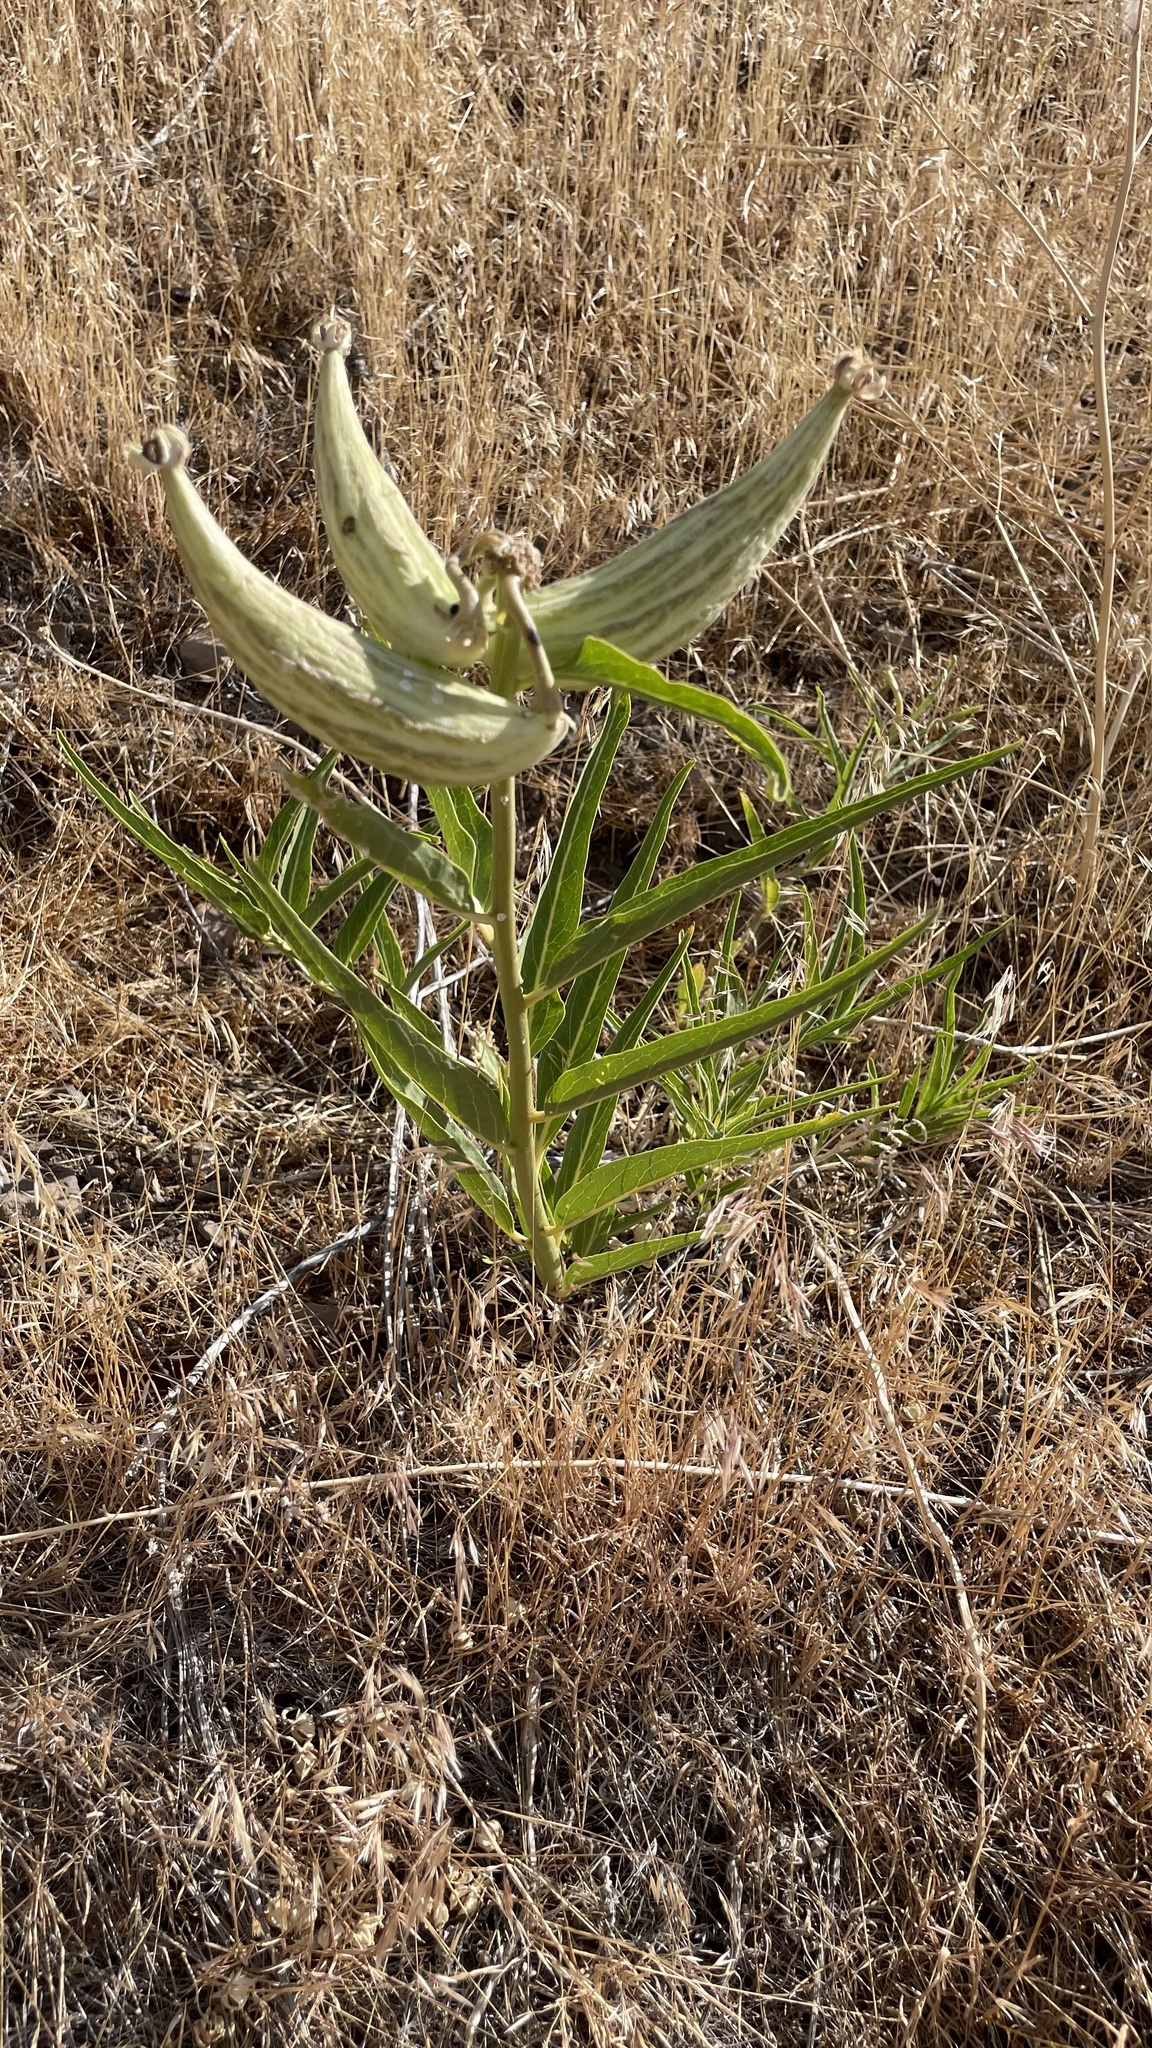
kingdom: Plantae
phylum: Tracheophyta
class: Magnoliopsida
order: Gentianales
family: Apocynaceae
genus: Asclepias
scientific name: Asclepias asperula
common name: Antelope horns
